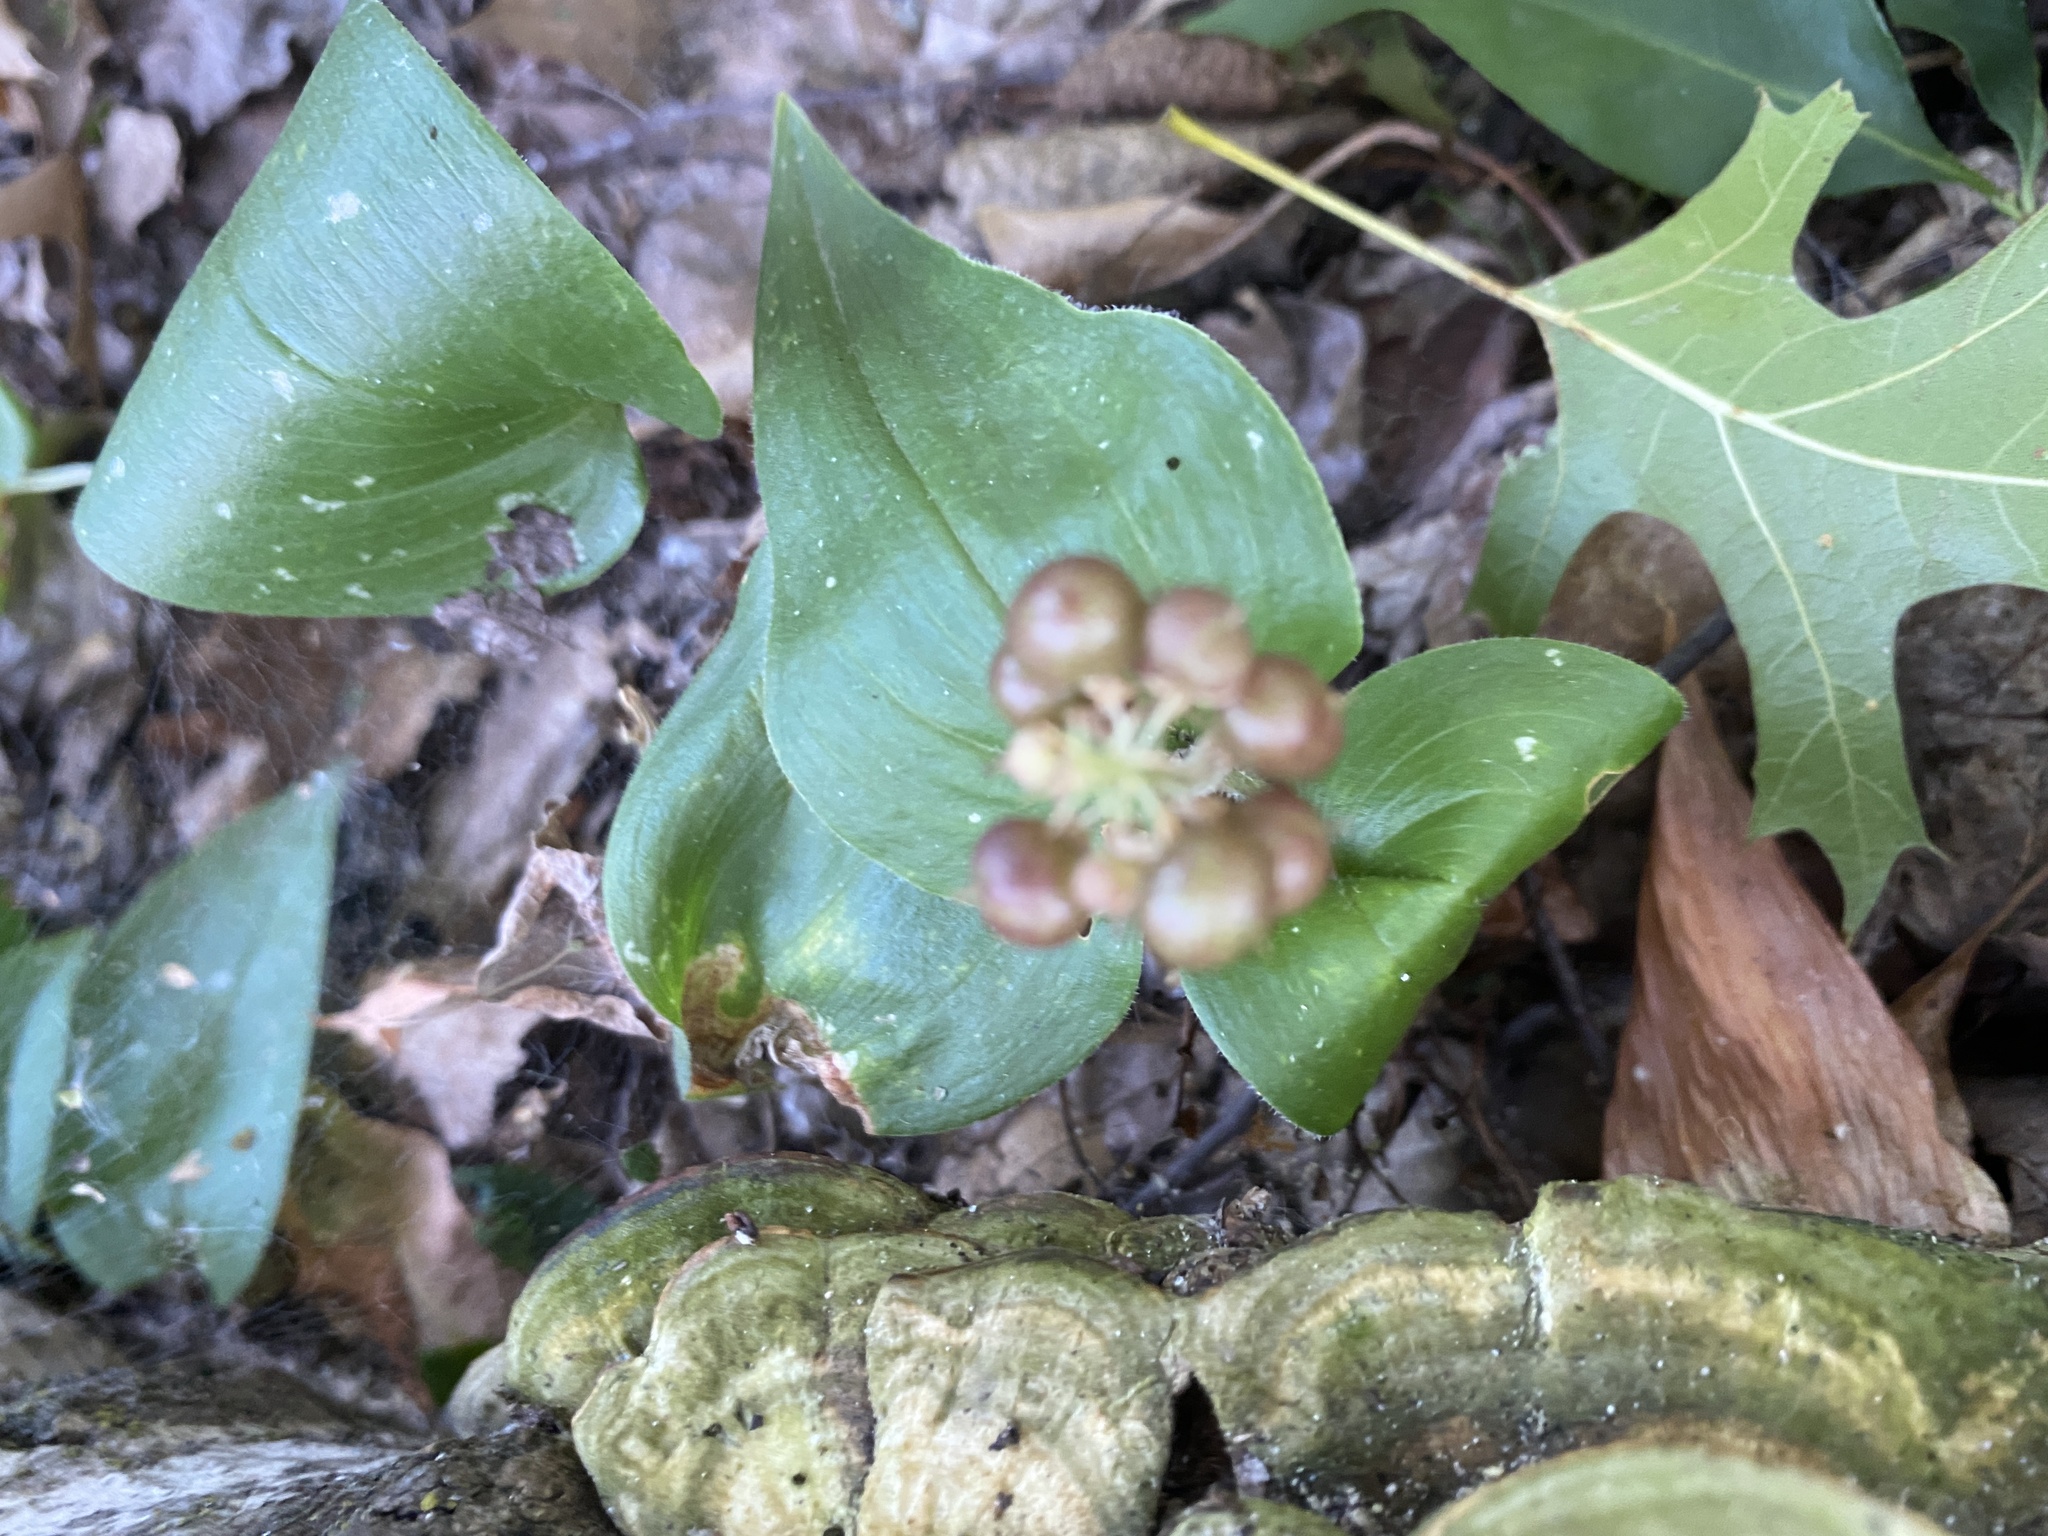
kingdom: Plantae
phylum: Tracheophyta
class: Liliopsida
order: Asparagales
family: Asparagaceae
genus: Maianthemum
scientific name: Maianthemum canadense
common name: False lily-of-the-valley
